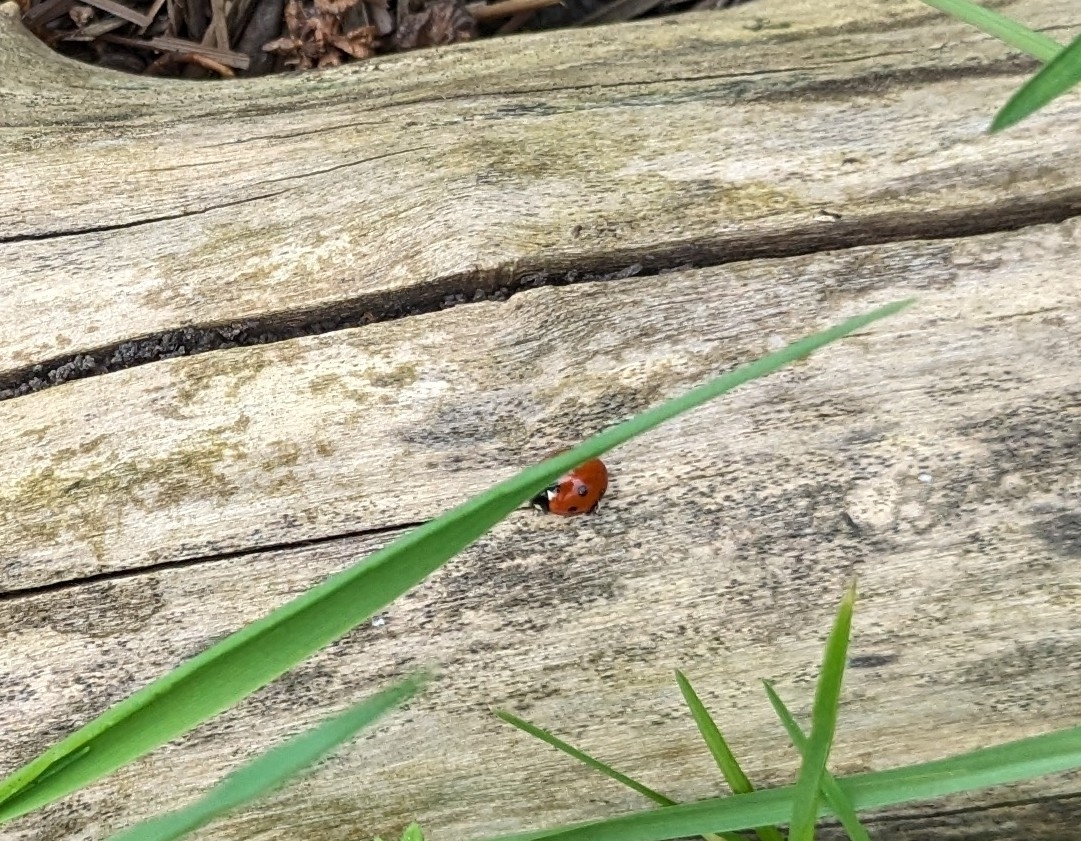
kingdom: Animalia
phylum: Arthropoda
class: Insecta
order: Coleoptera
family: Coccinellidae
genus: Coccinella
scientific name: Coccinella septempunctata
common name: Sevenspotted lady beetle
